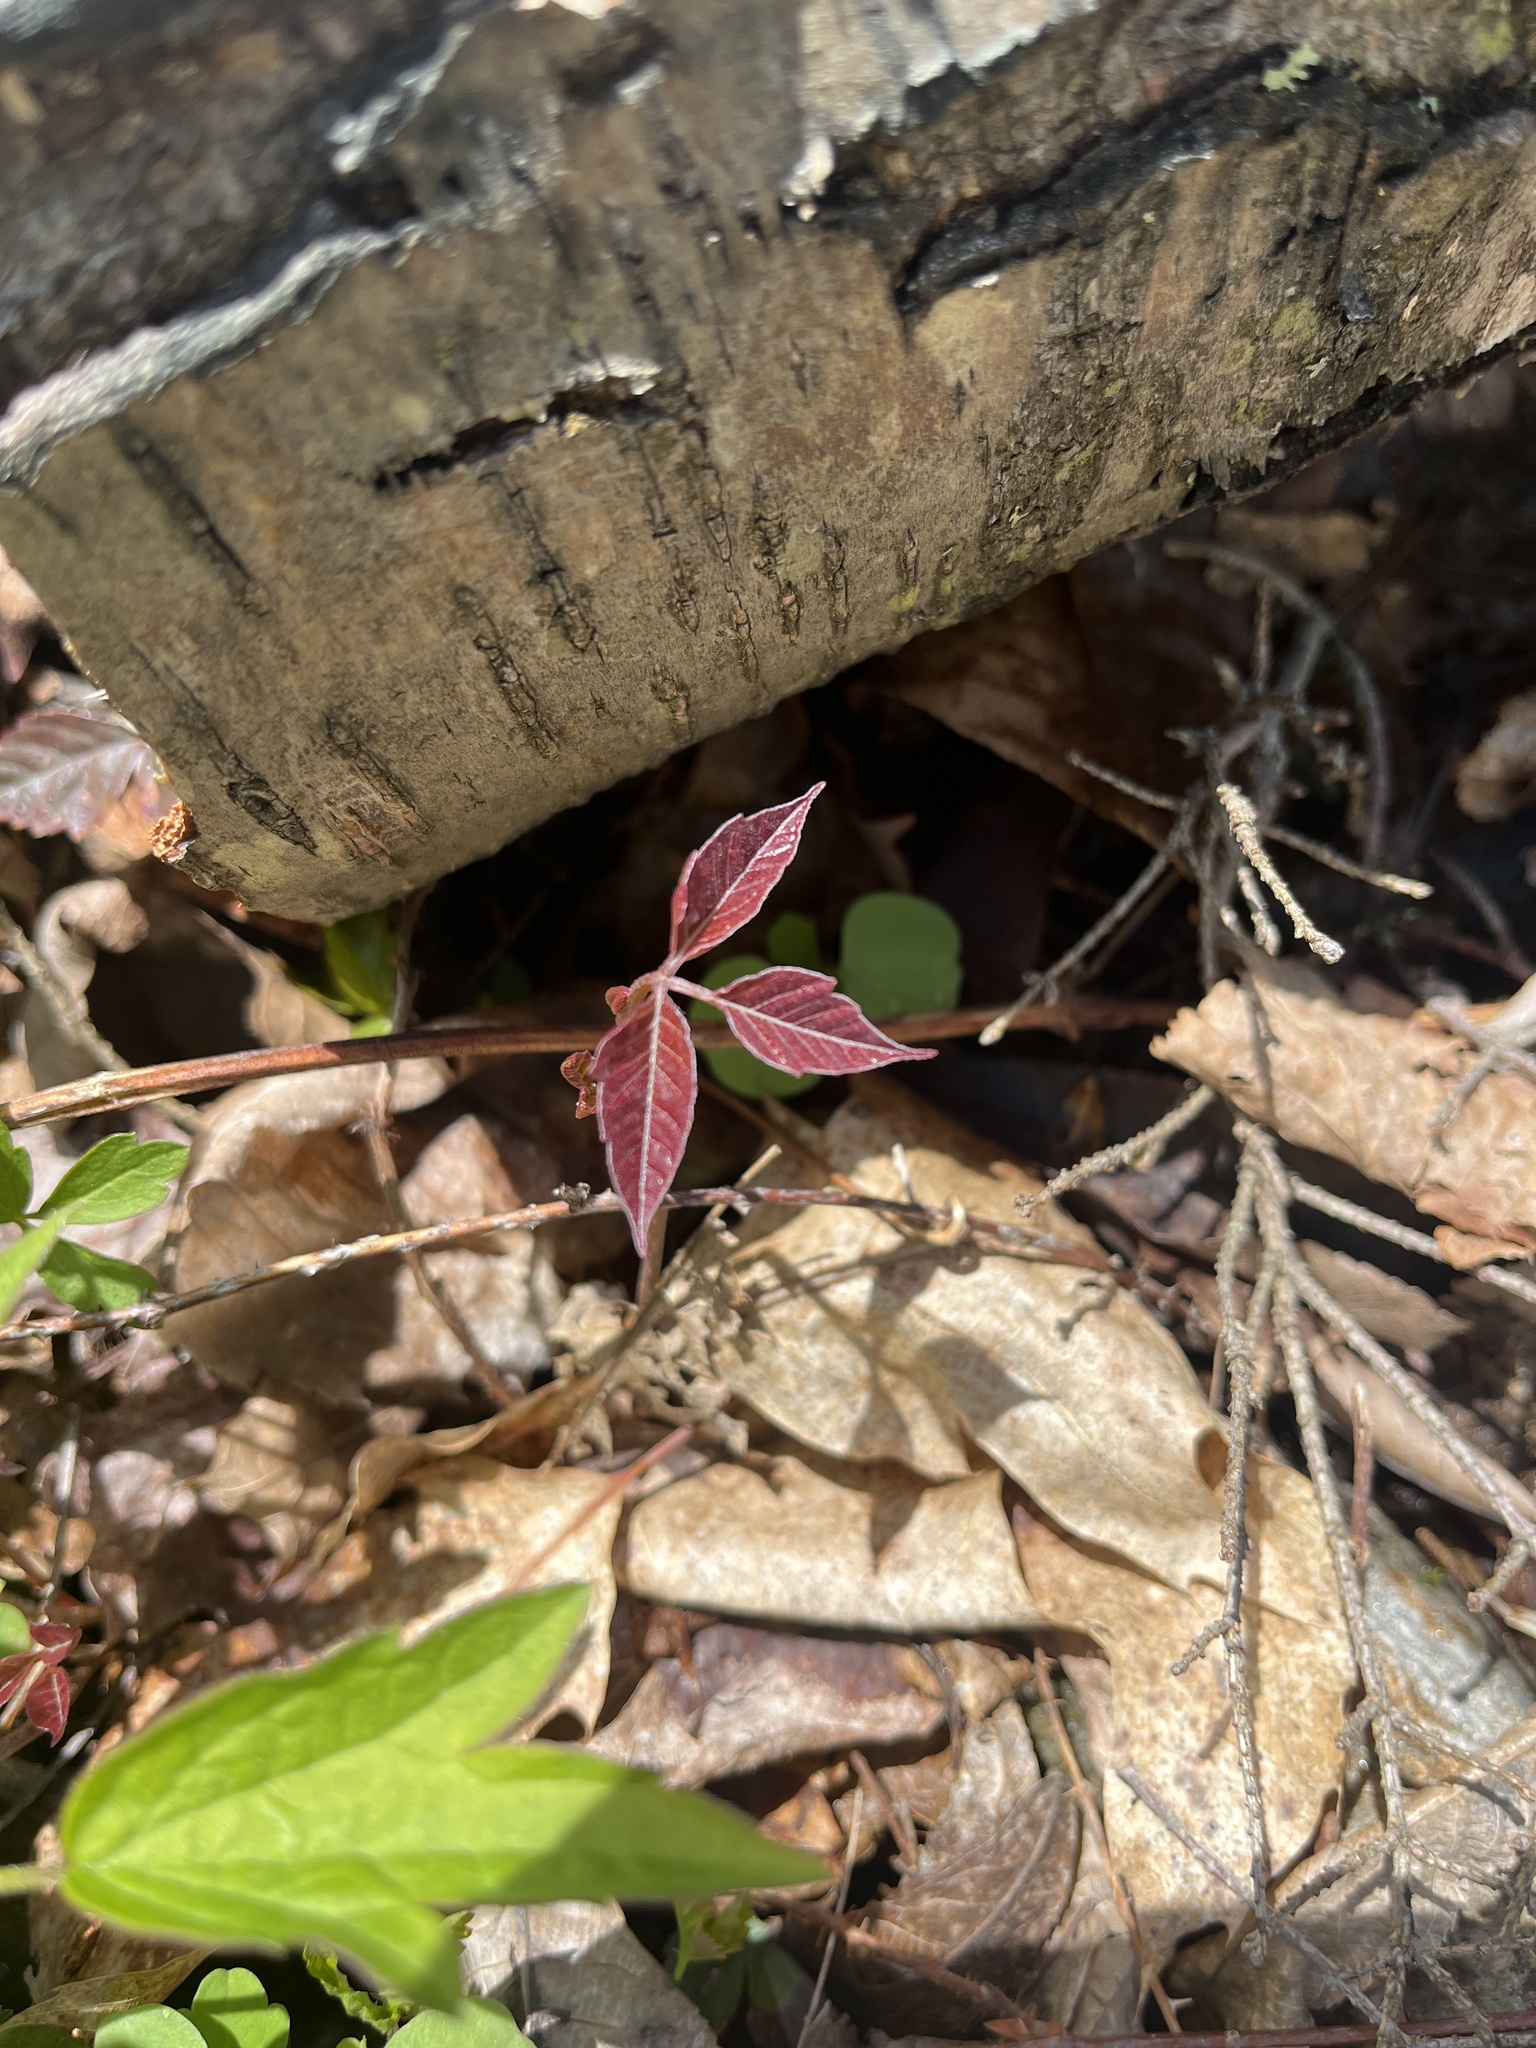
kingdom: Plantae
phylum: Tracheophyta
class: Magnoliopsida
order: Sapindales
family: Anacardiaceae
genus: Toxicodendron
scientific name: Toxicodendron radicans
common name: Poison ivy
